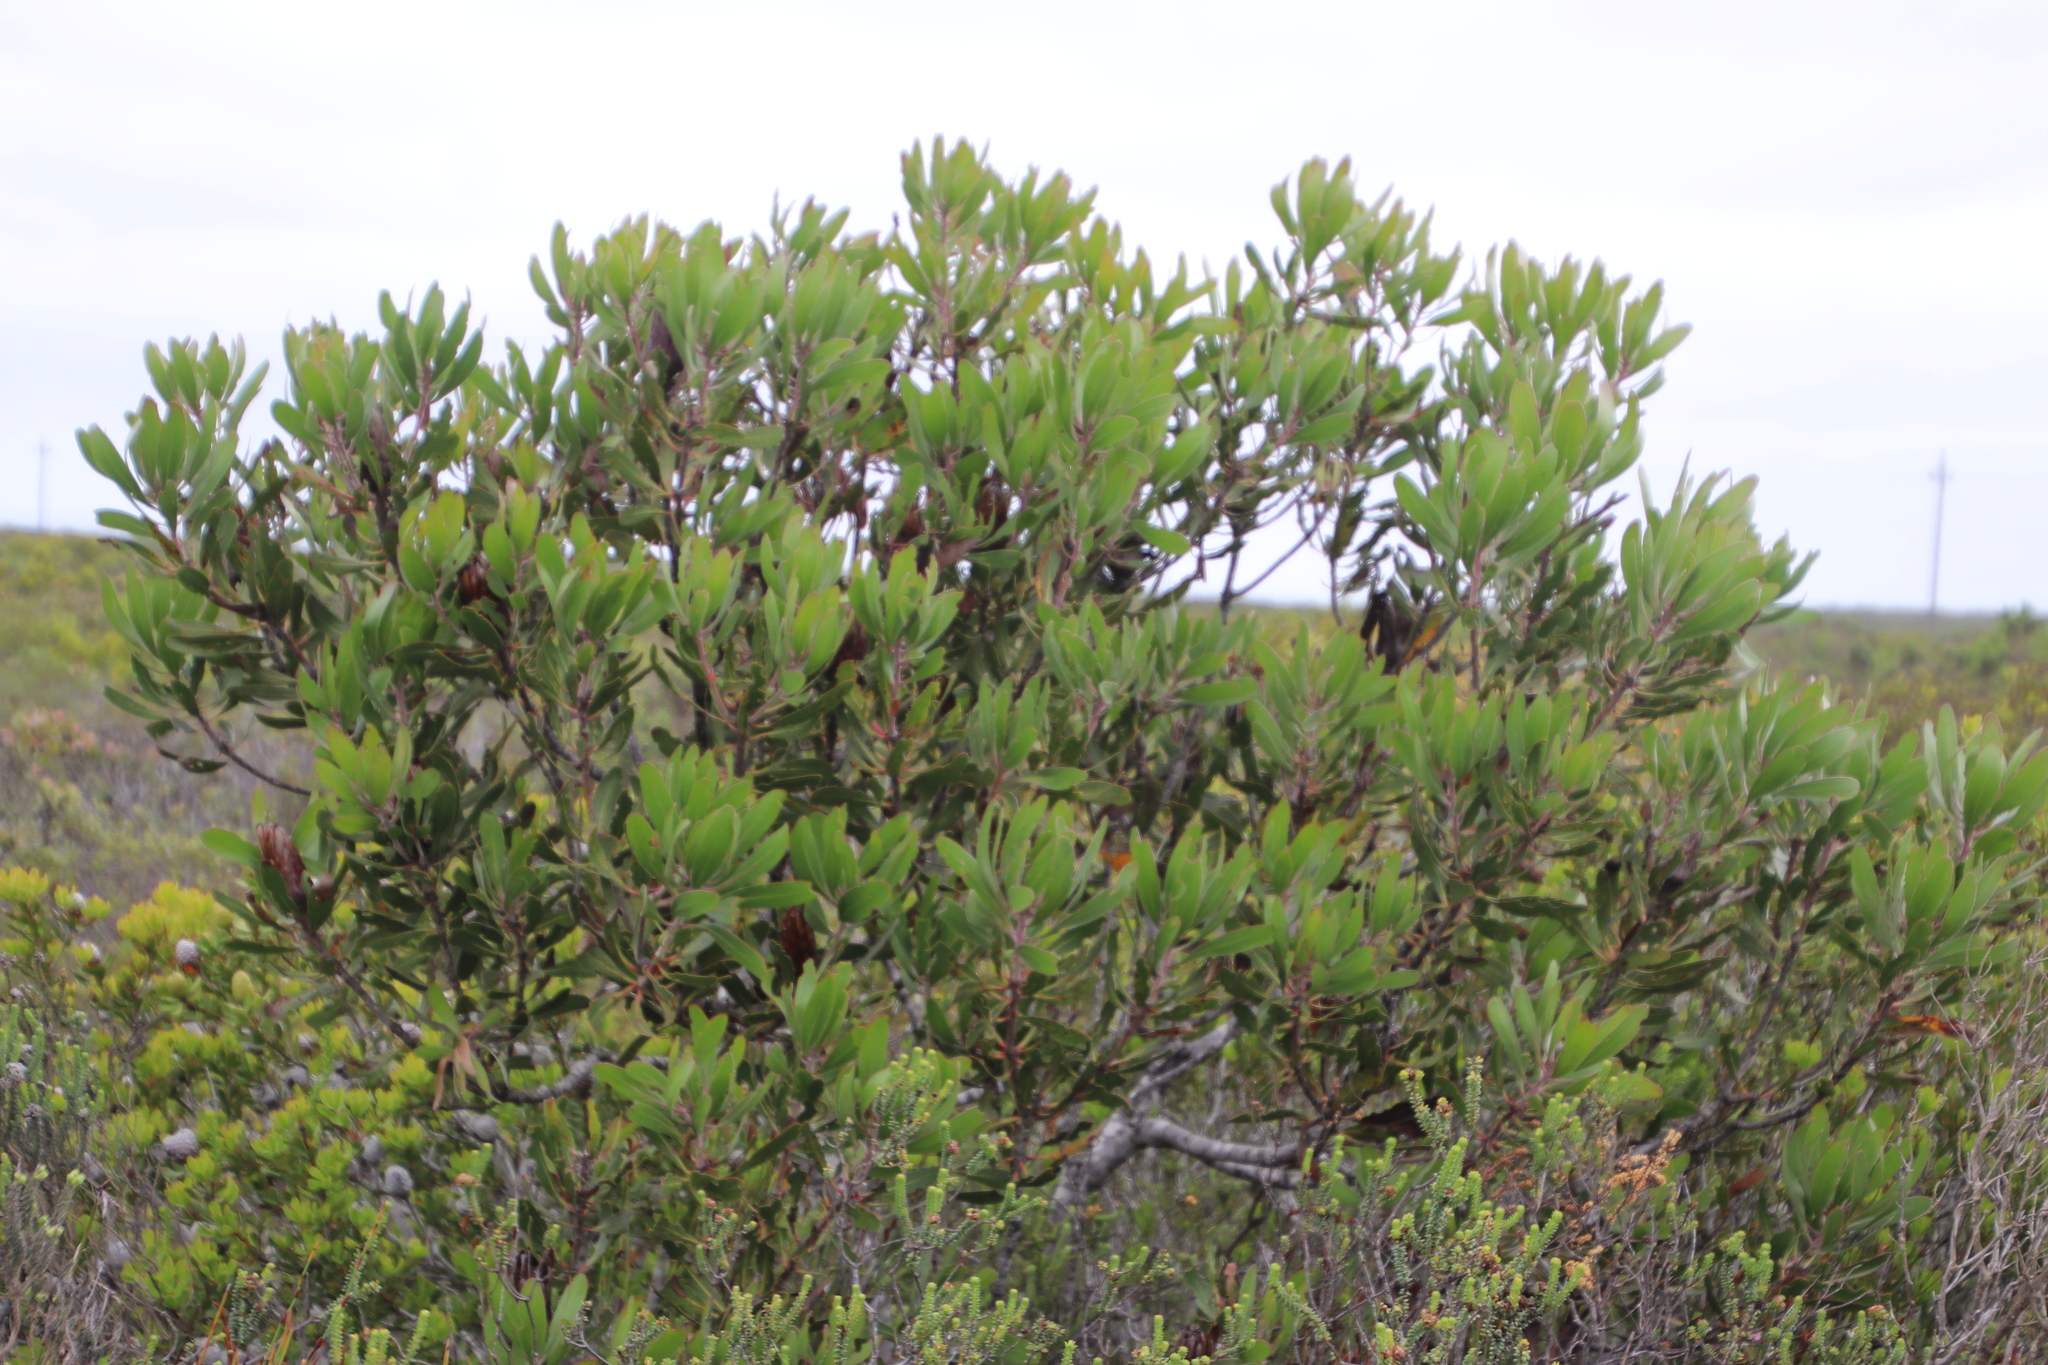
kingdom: Plantae
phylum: Tracheophyta
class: Magnoliopsida
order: Proteales
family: Proteaceae
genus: Protea
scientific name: Protea obtusifolia
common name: Bredasdorp sugarbush
